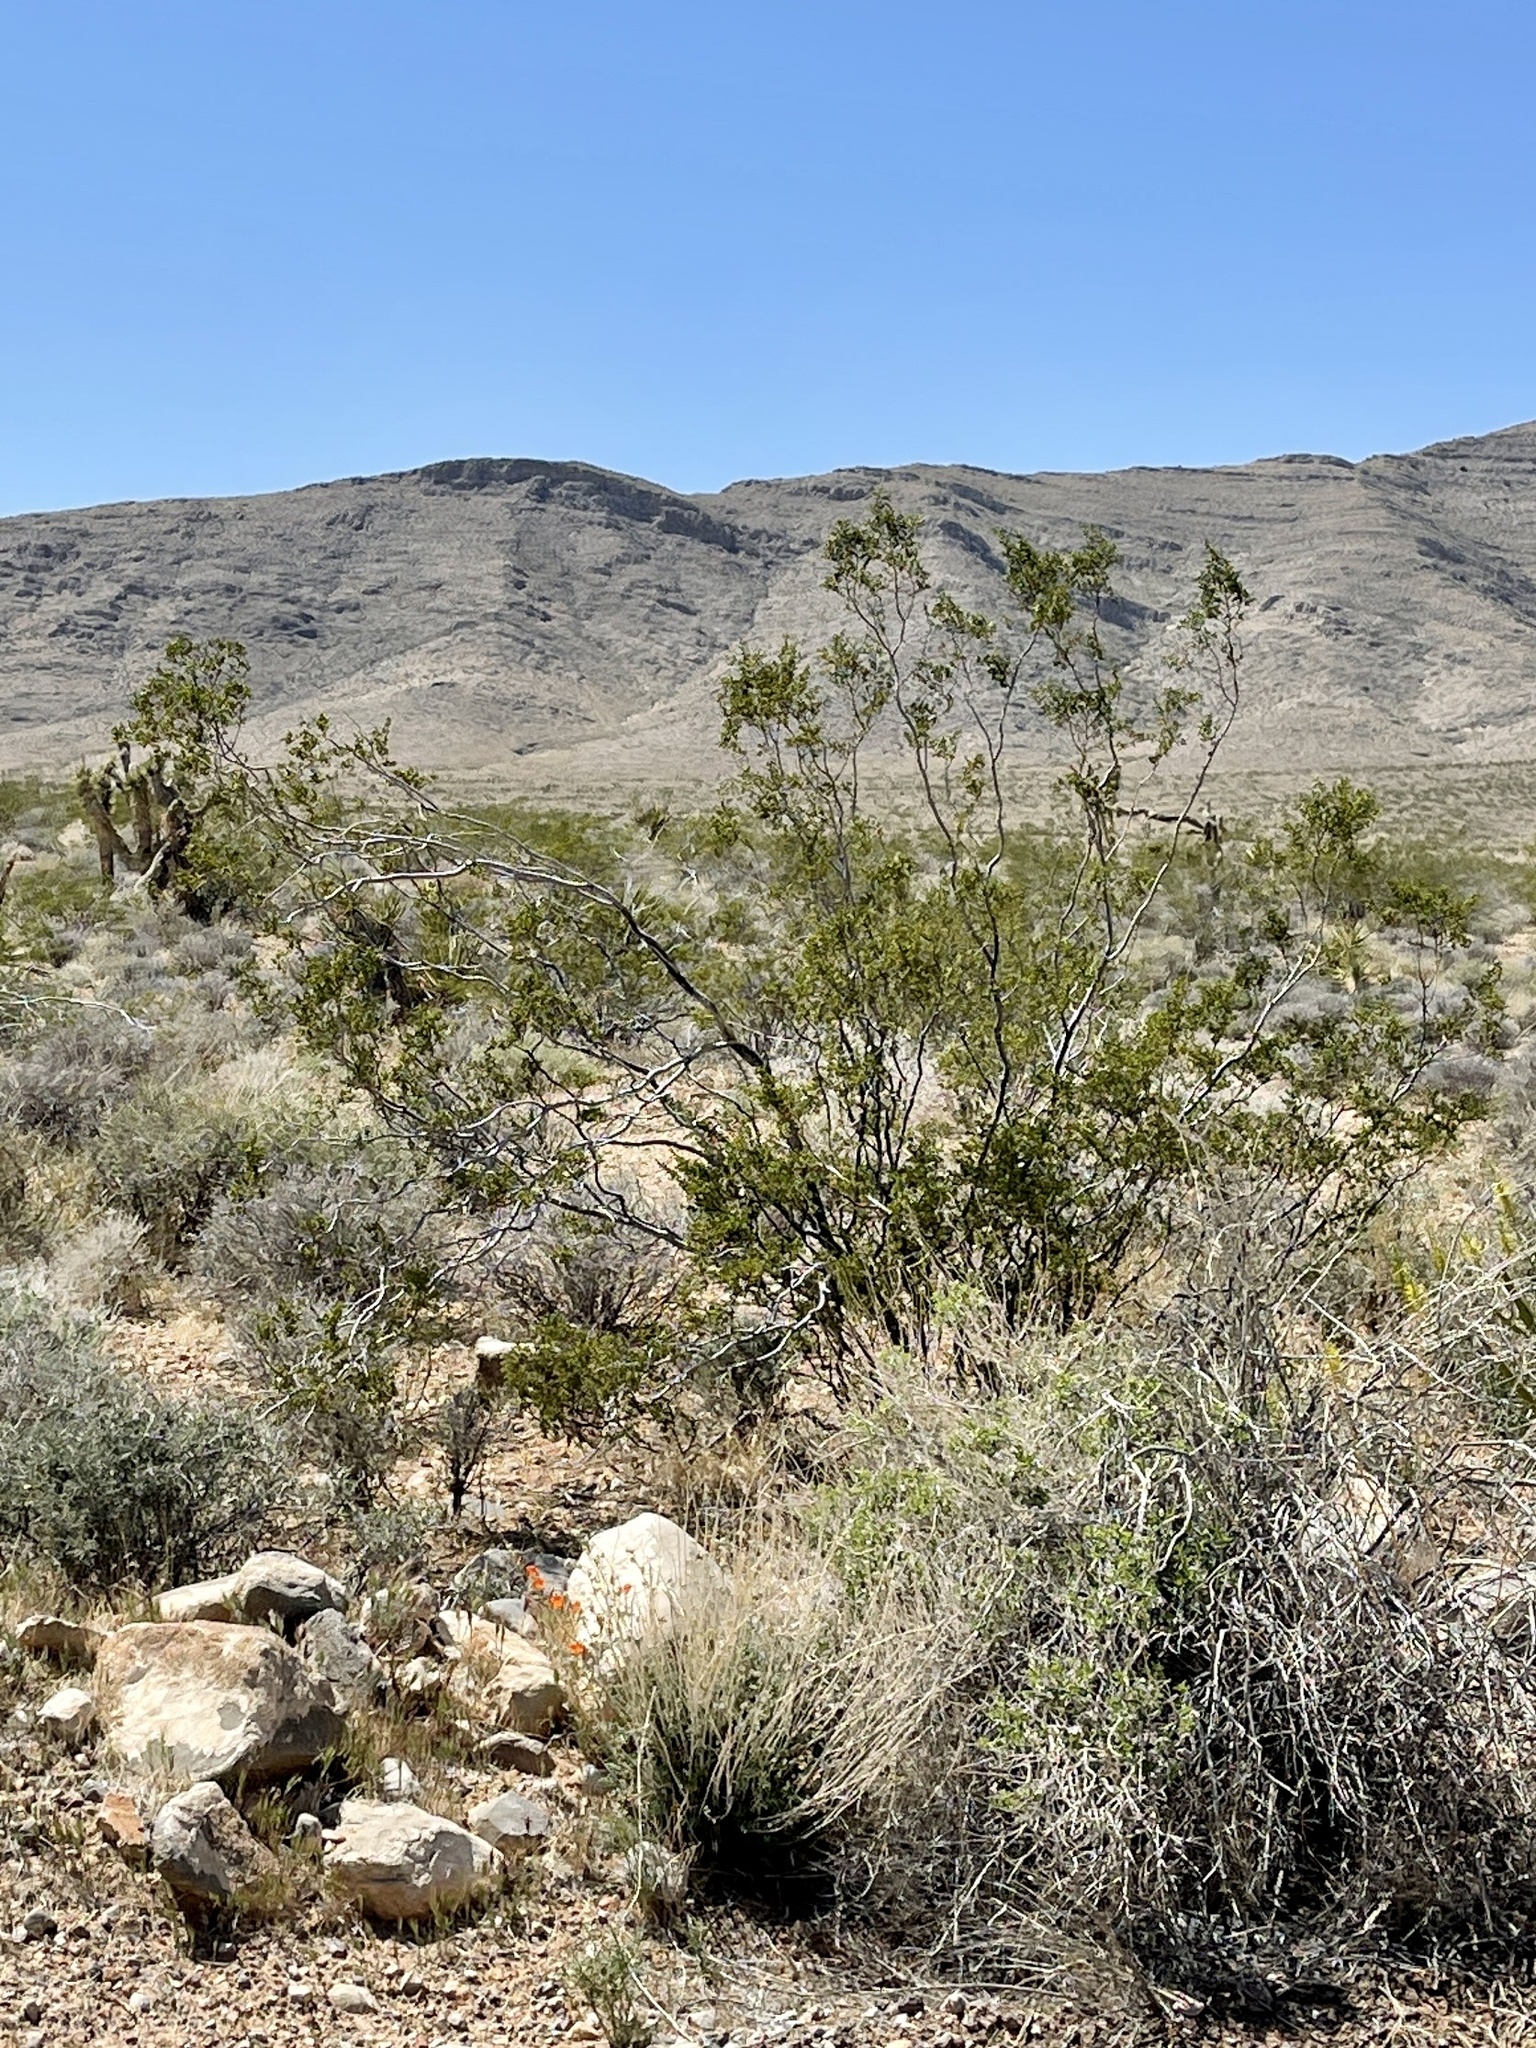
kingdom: Plantae
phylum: Tracheophyta
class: Magnoliopsida
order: Zygophyllales
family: Zygophyllaceae
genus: Larrea
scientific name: Larrea tridentata
